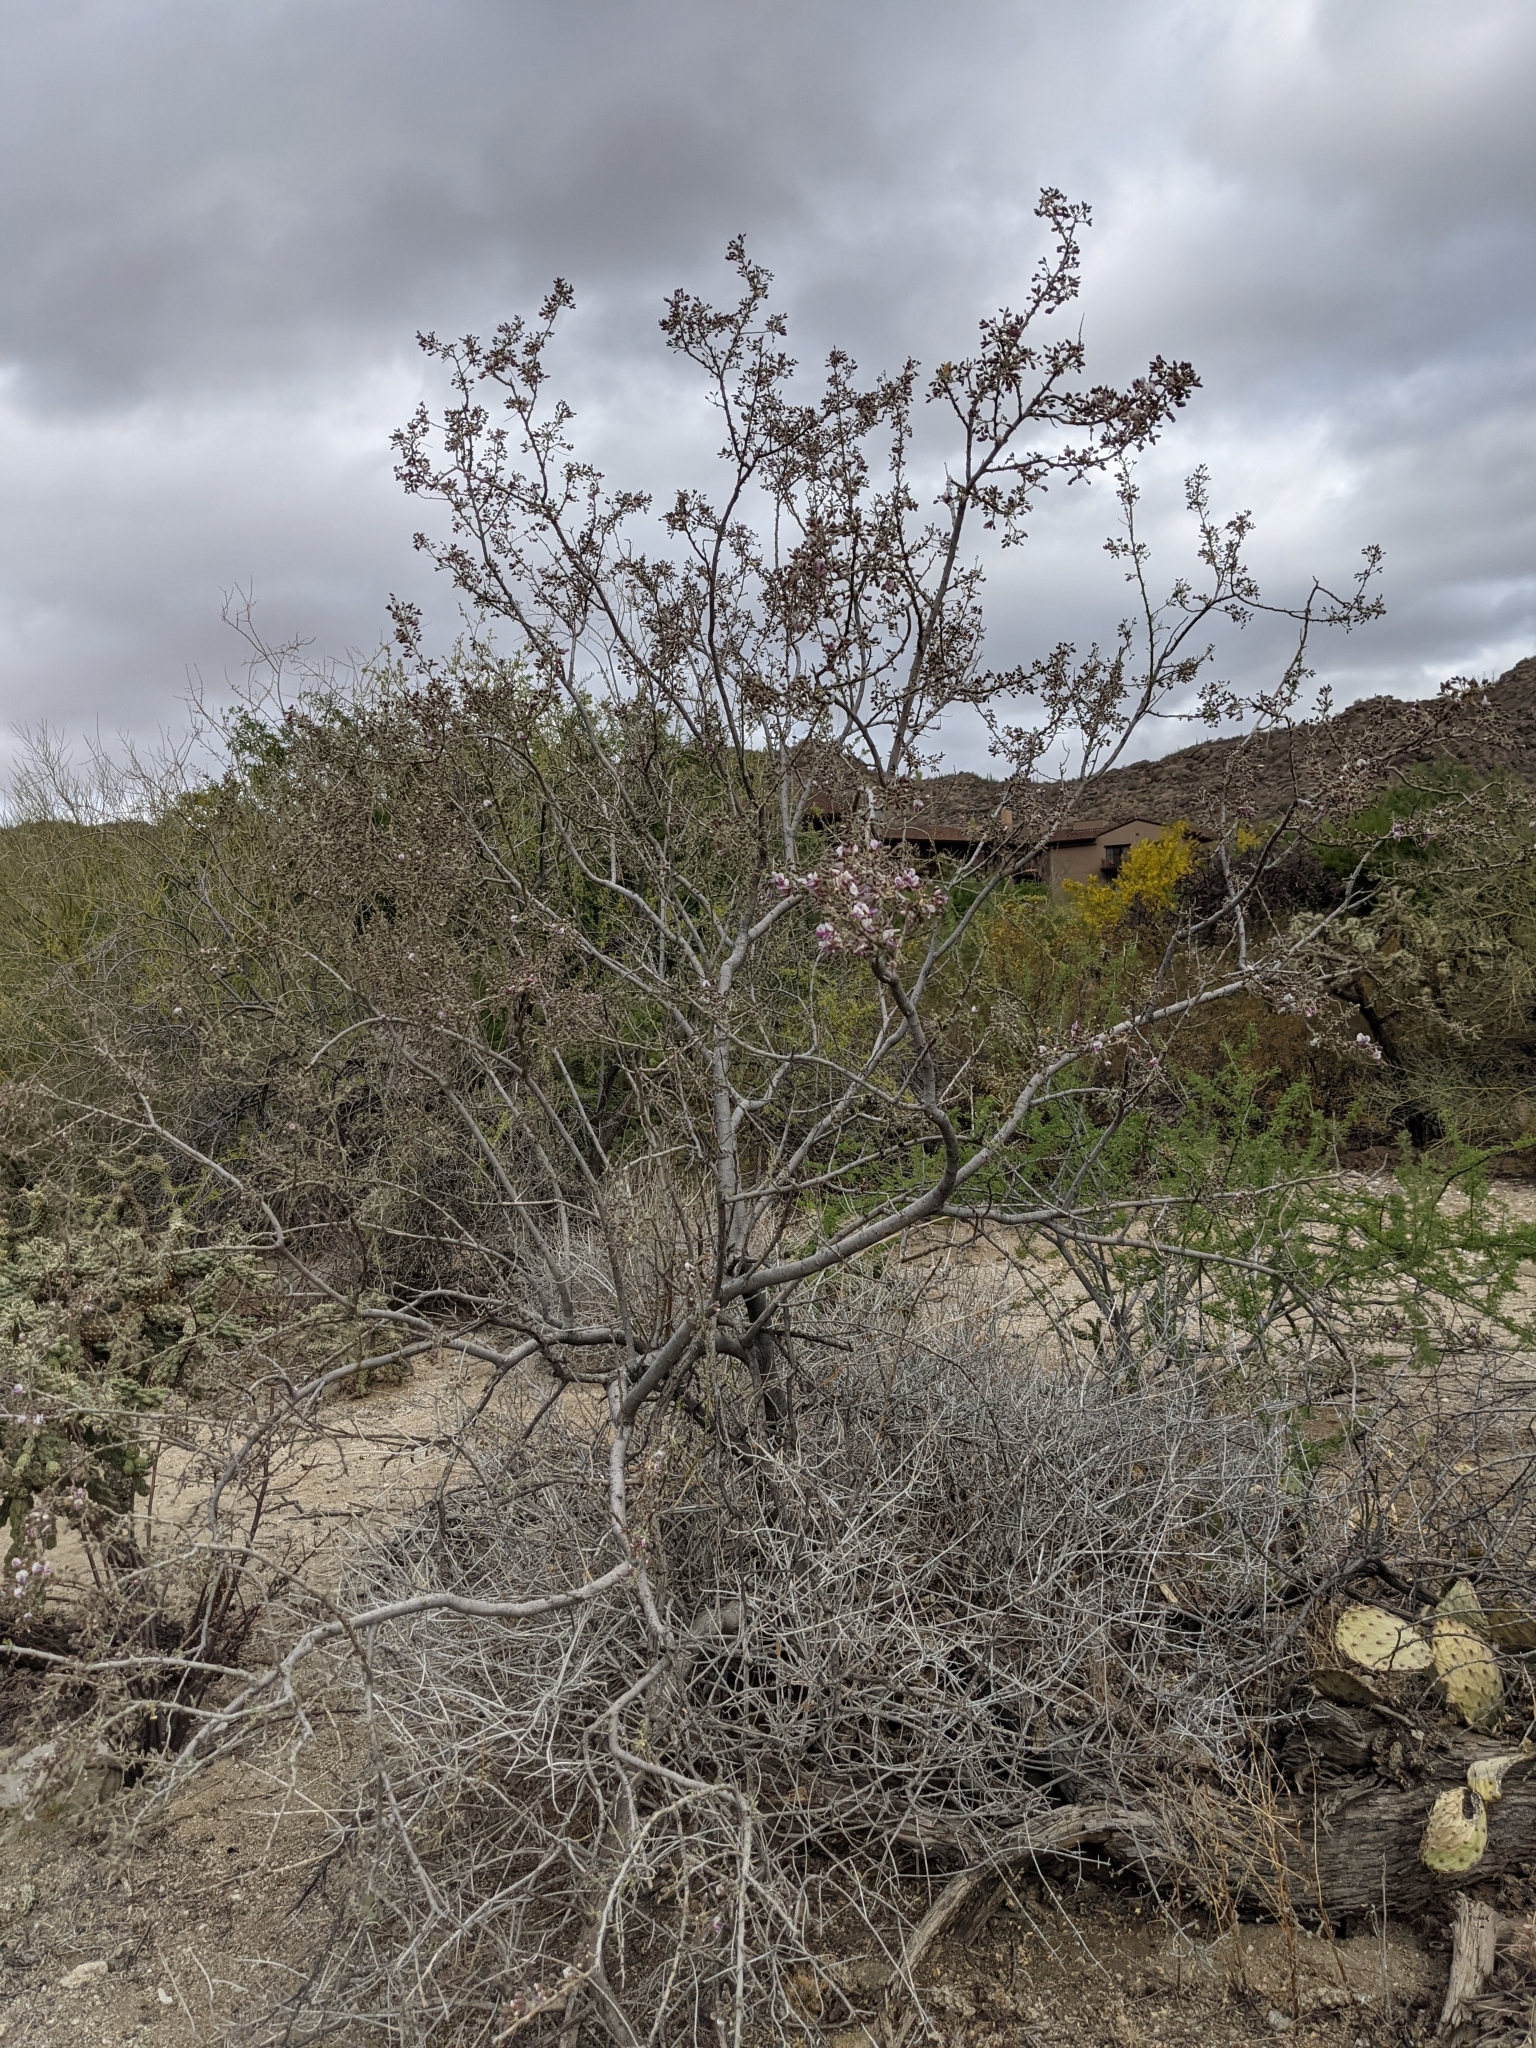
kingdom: Plantae
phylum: Tracheophyta
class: Magnoliopsida
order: Fabales
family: Fabaceae
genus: Olneya
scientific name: Olneya tesota
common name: Desert ironwood
